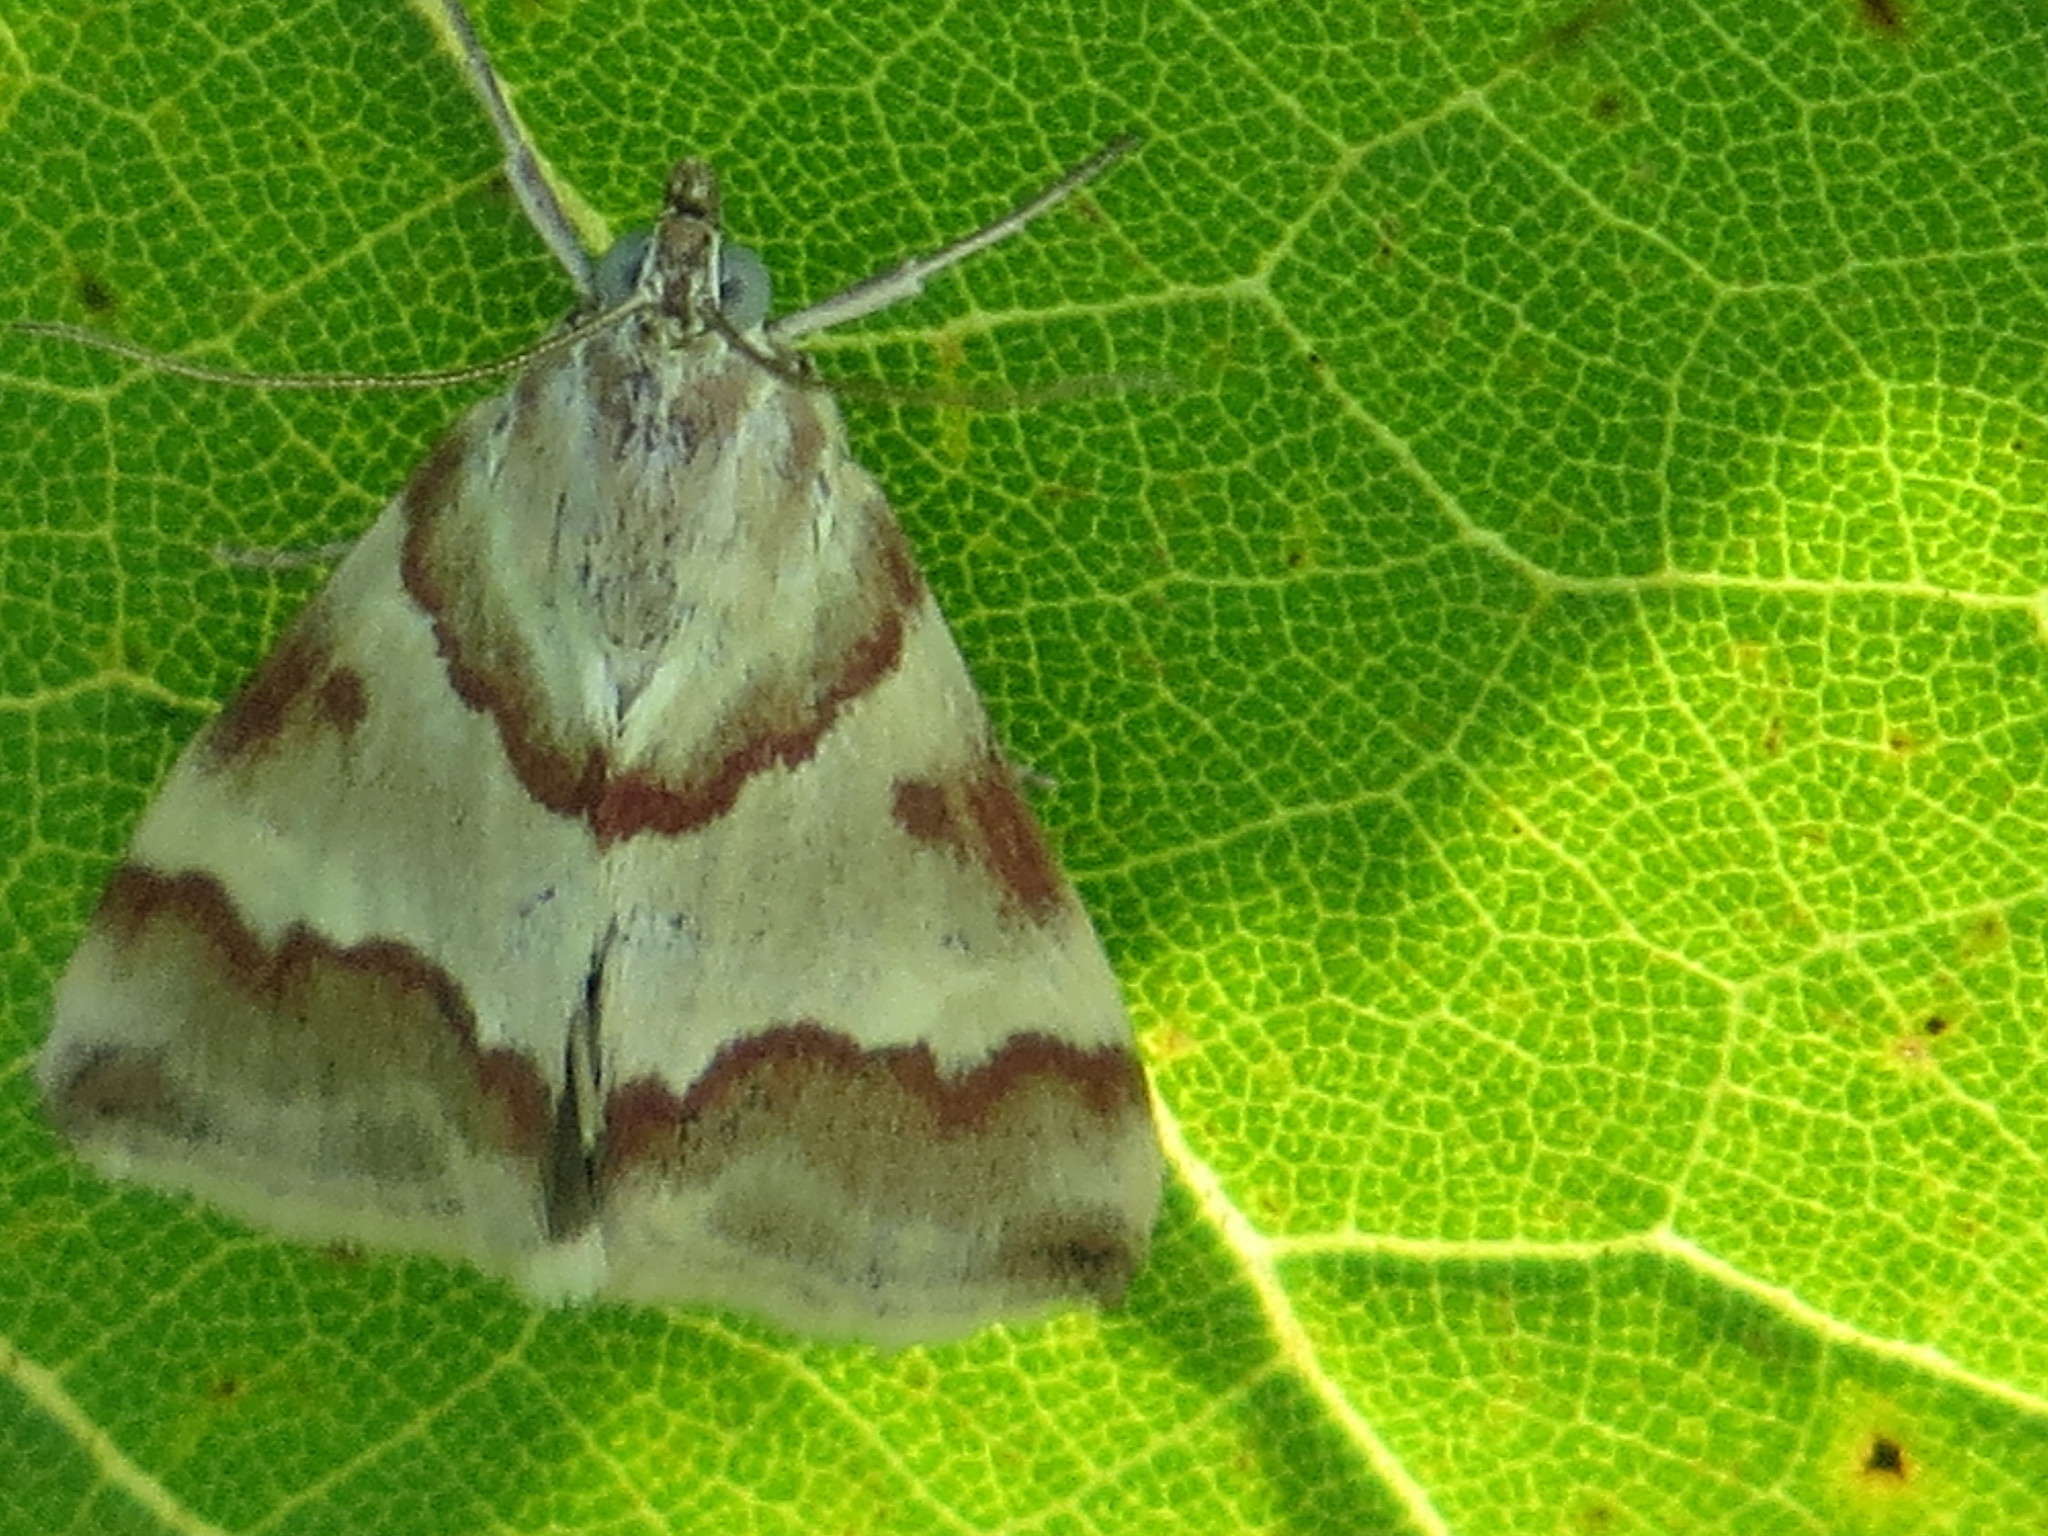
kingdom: Animalia
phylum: Arthropoda
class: Insecta
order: Lepidoptera
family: Crambidae
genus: Noctuelia
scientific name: Noctuelia Mimoschinia rufofascialis
